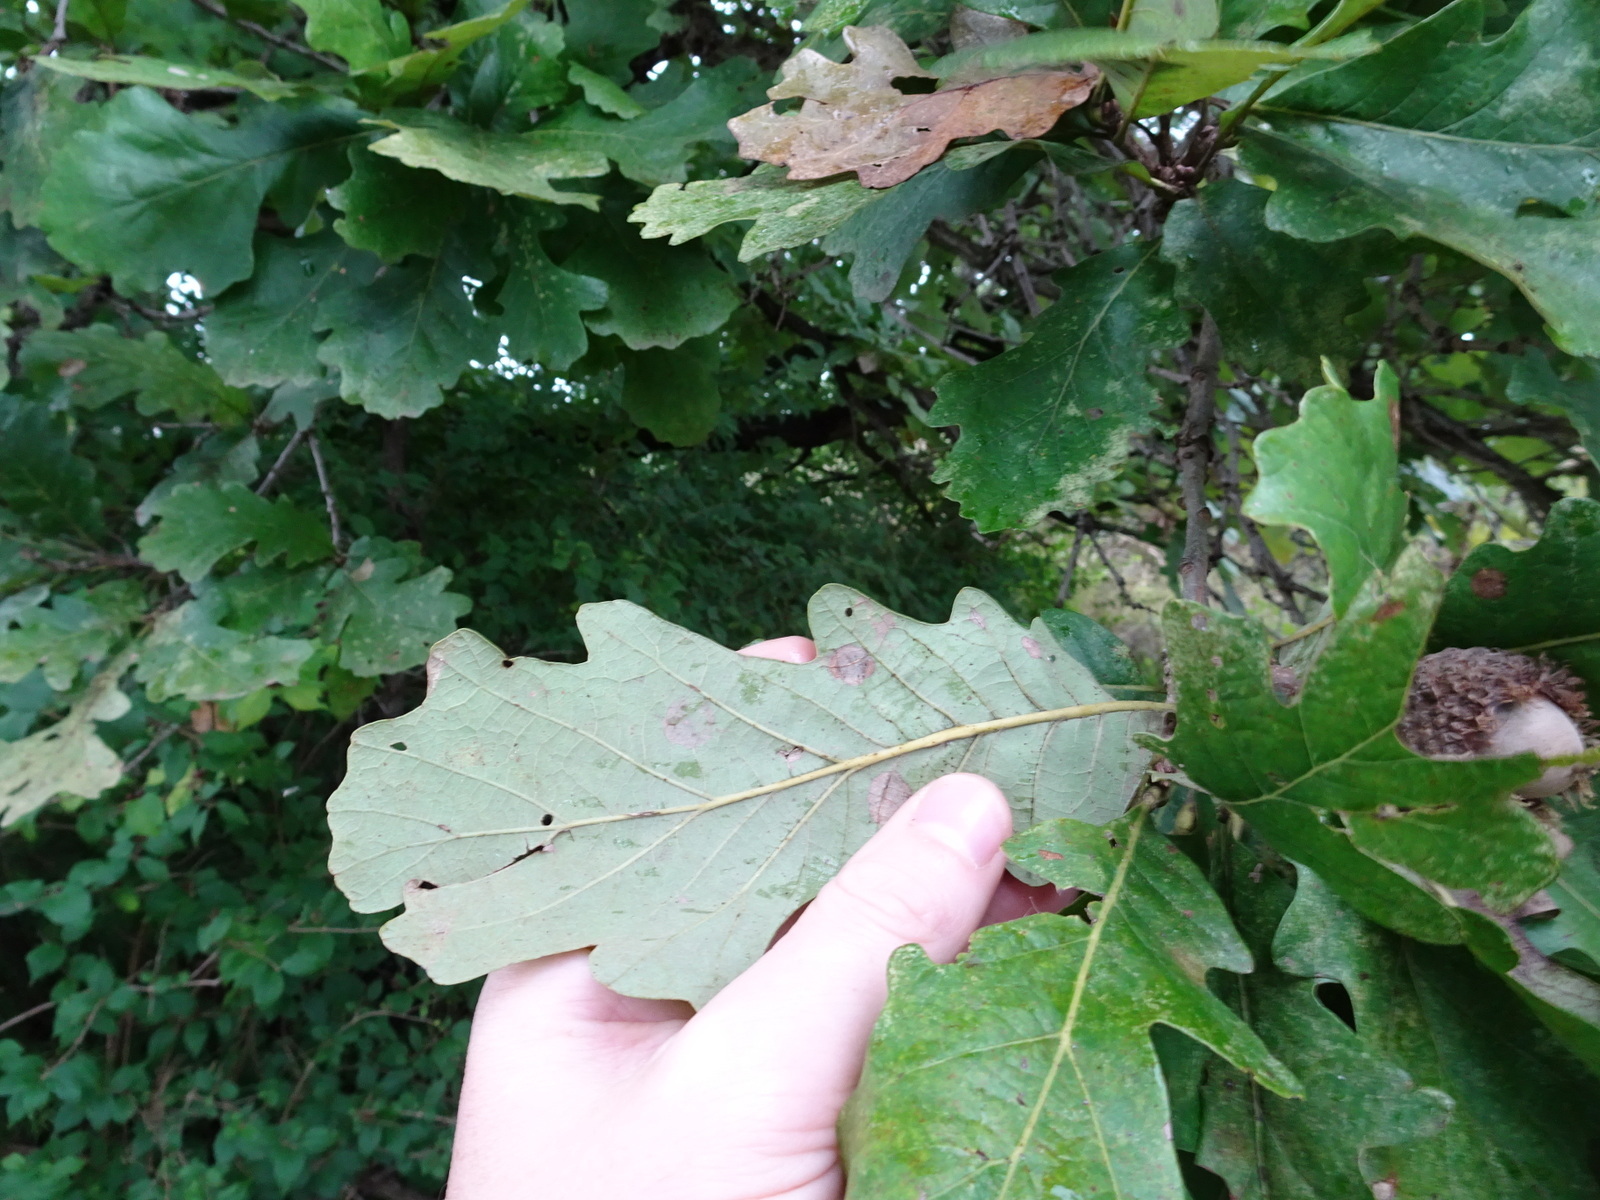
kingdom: Plantae
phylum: Tracheophyta
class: Magnoliopsida
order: Fagales
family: Fagaceae
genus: Quercus
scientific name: Quercus macrocarpa
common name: Bur oak
